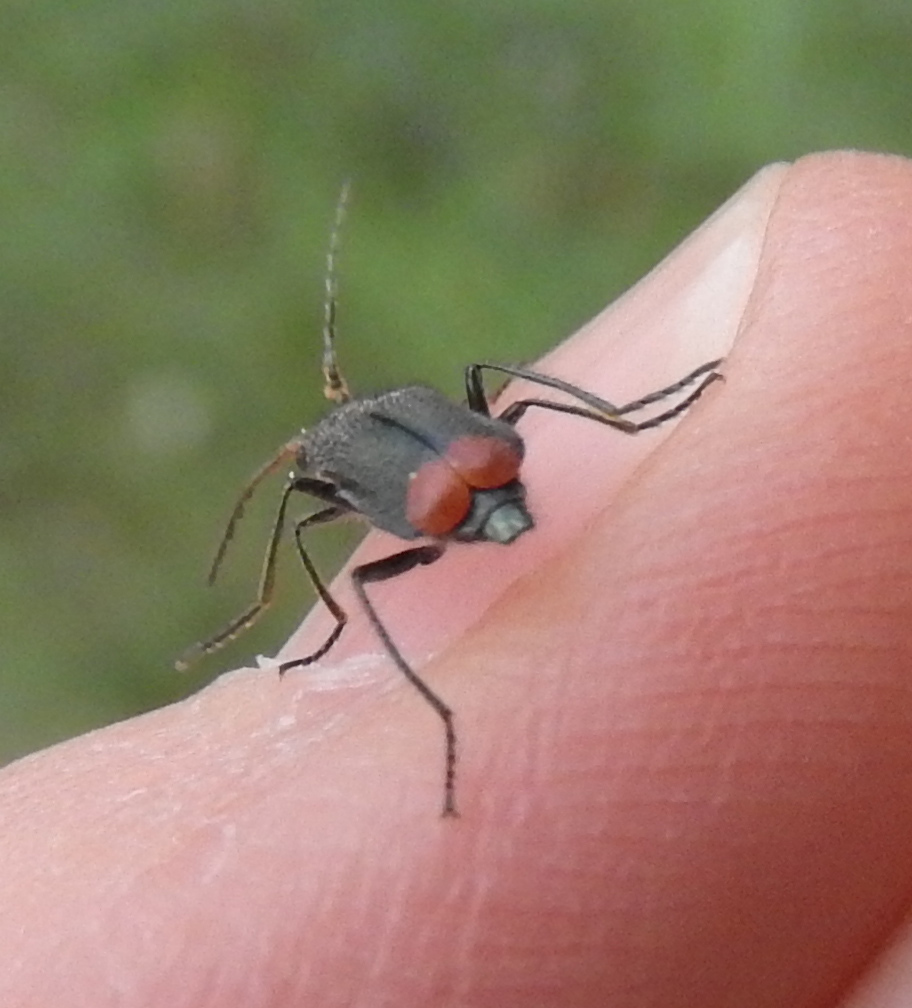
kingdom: Animalia
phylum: Arthropoda
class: Insecta
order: Coleoptera
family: Melyridae
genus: Malachius
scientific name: Malachius bipustulatus
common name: Malachite beetle
